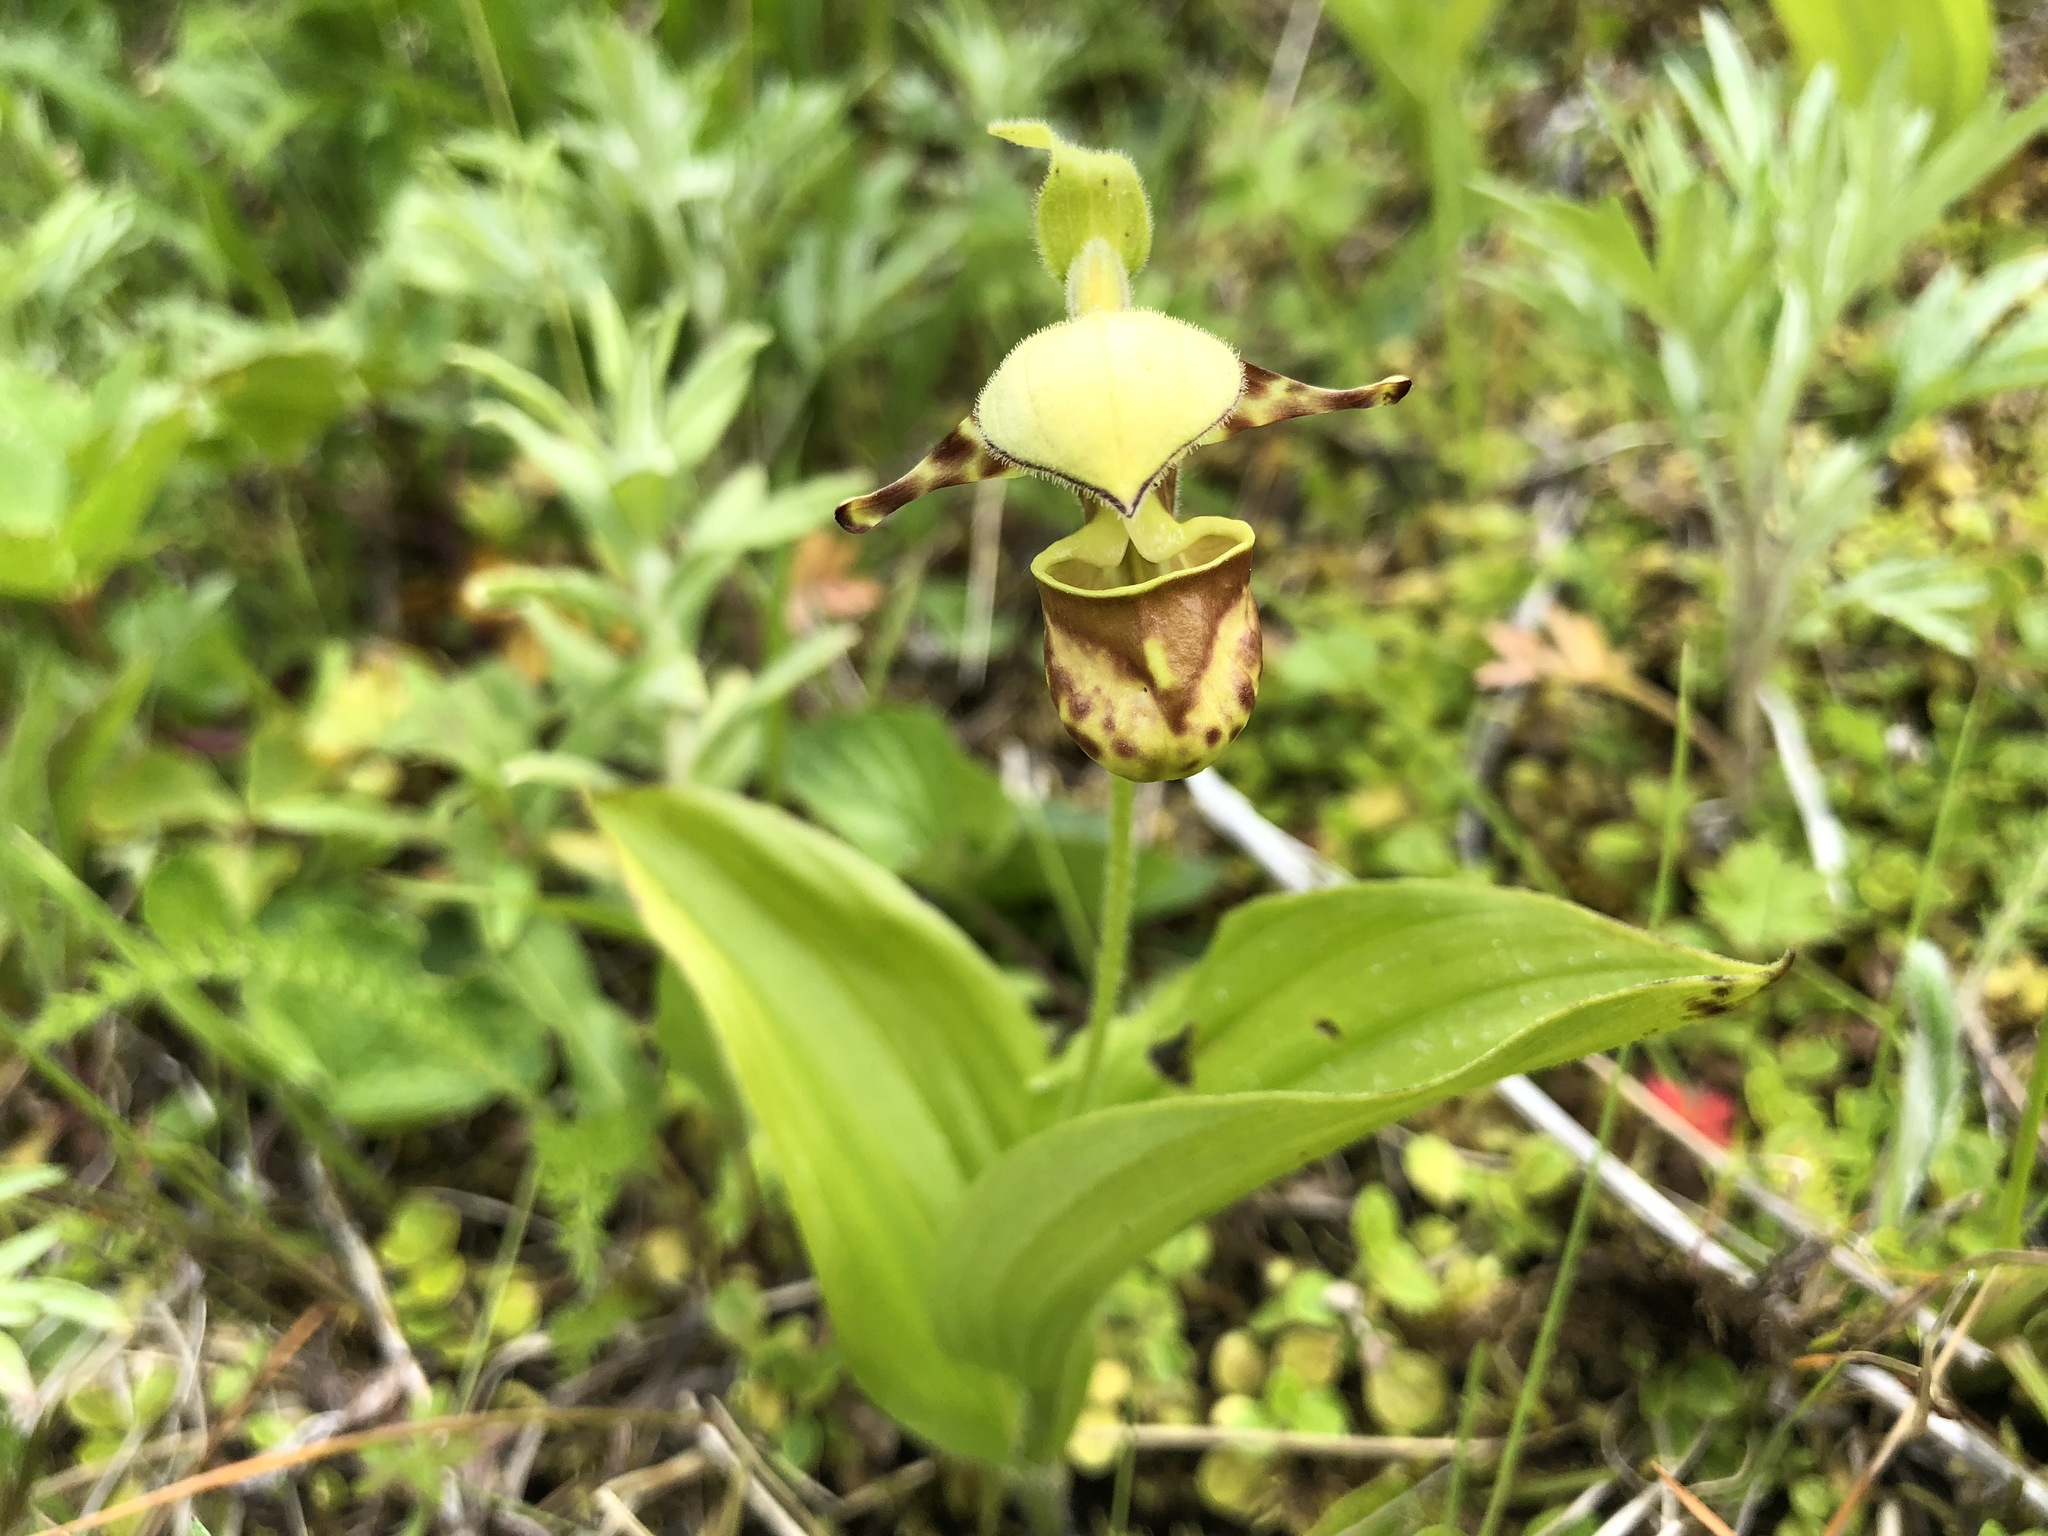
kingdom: Plantae
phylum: Tracheophyta
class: Liliopsida
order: Asparagales
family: Orchidaceae
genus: Cypripedium
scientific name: Cypripedium yatabeanum
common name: Spotted lady's slipper
